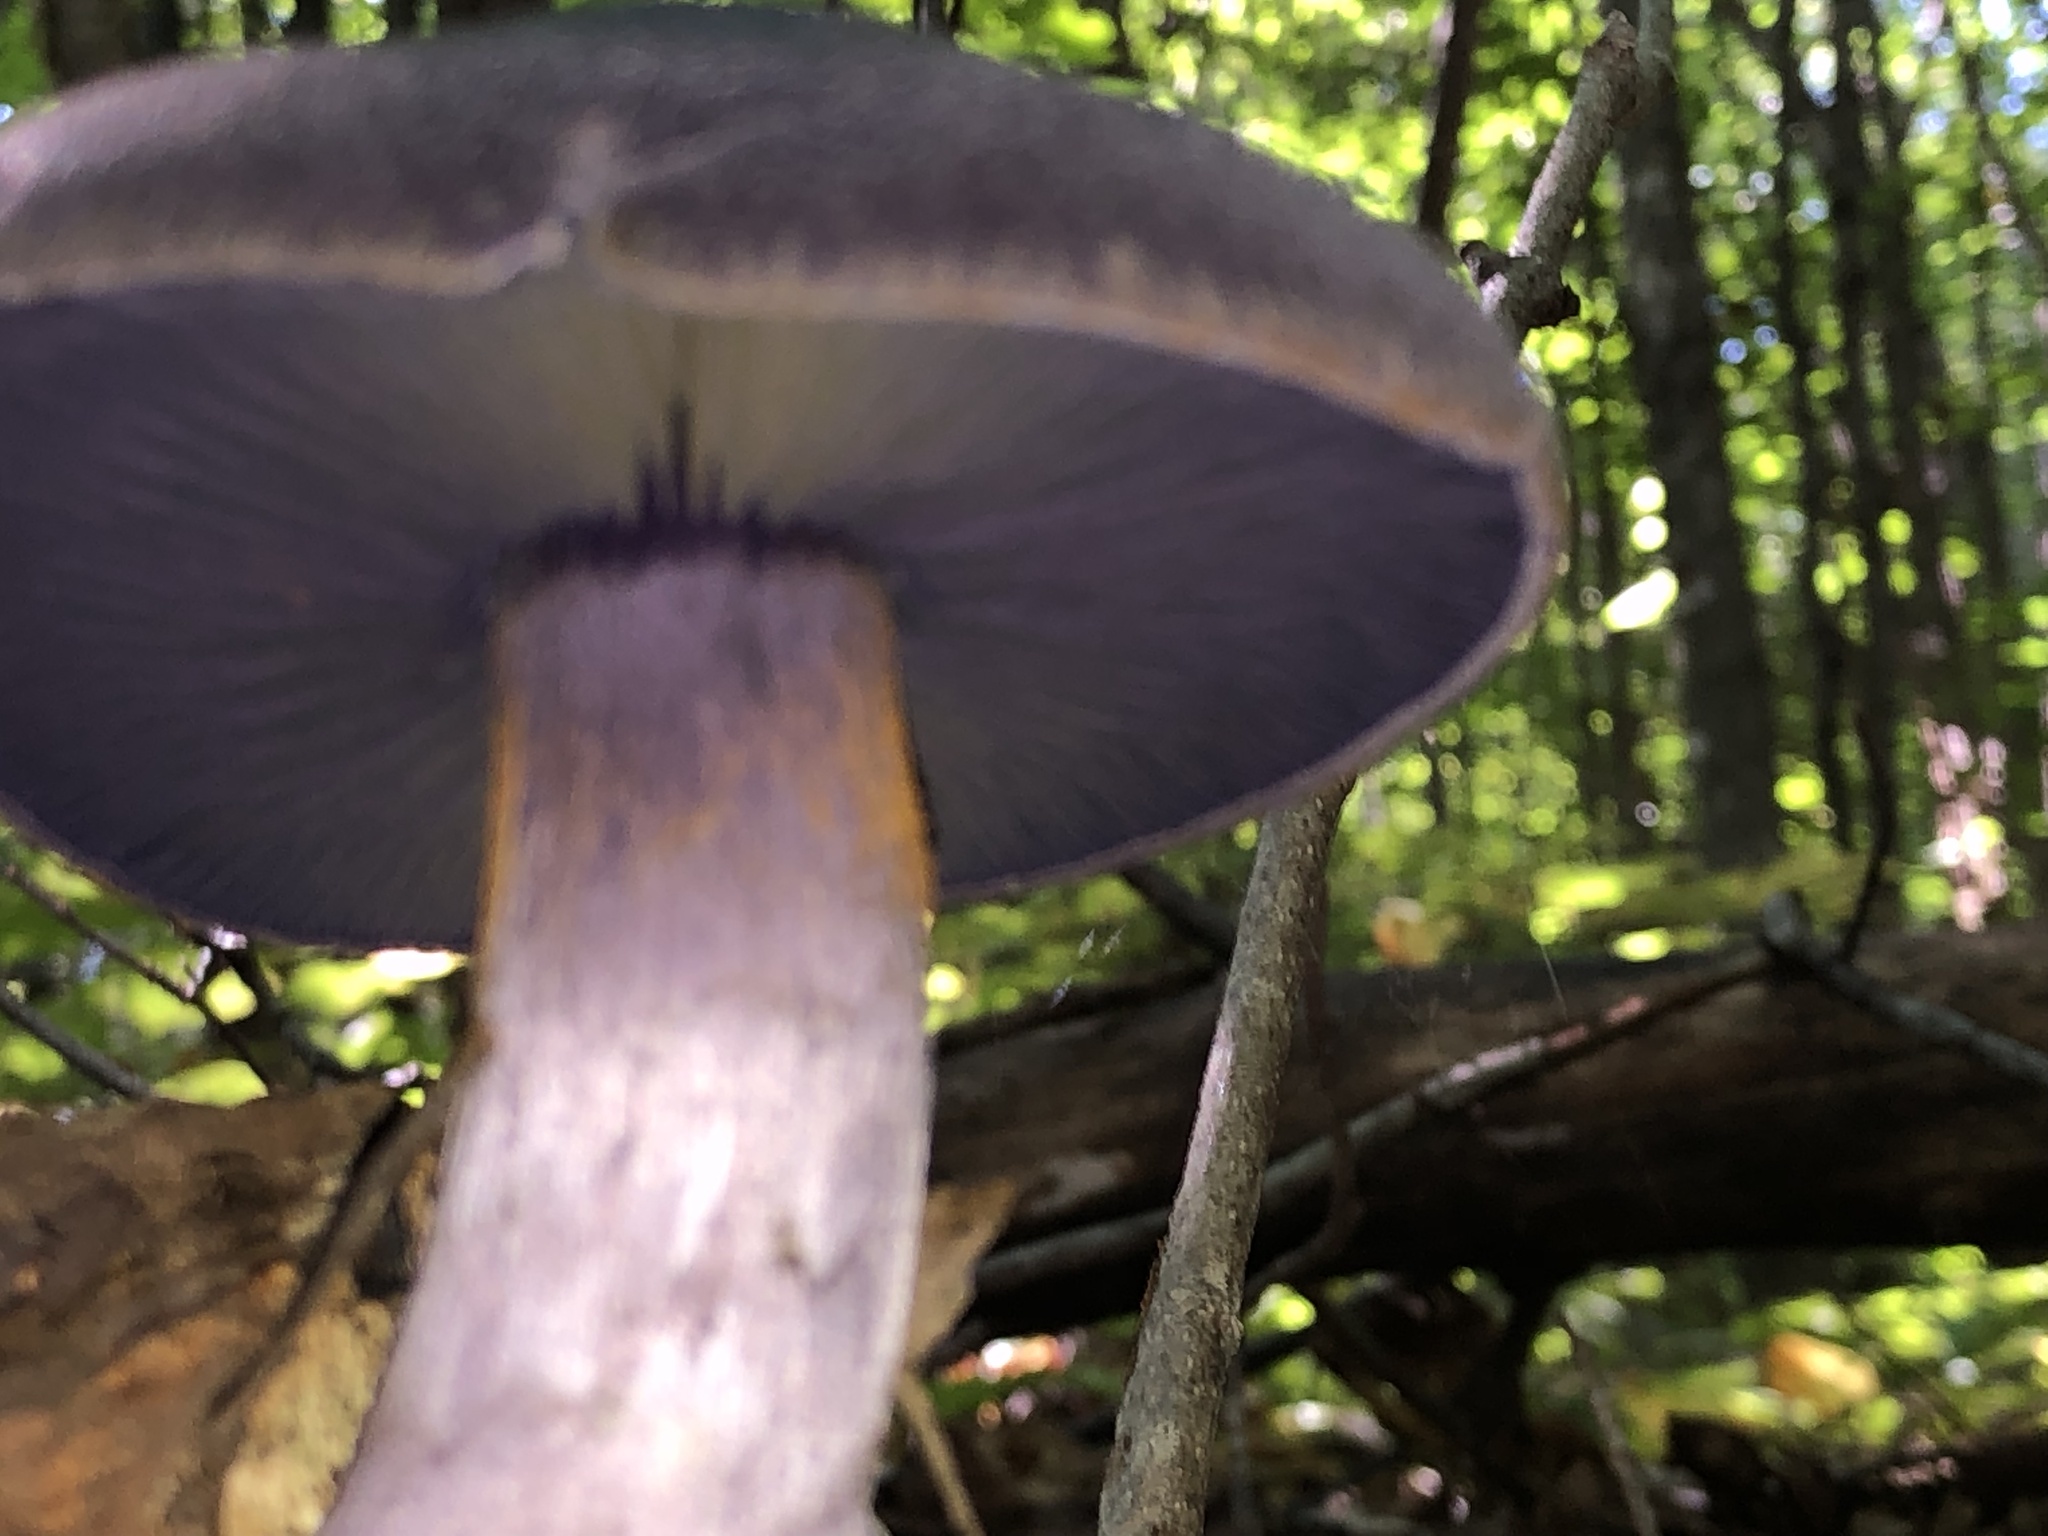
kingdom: Fungi
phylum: Basidiomycota
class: Agaricomycetes
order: Agaricales
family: Cortinariaceae
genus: Cortinarius
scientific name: Cortinarius violaceus
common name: Violet webcap
